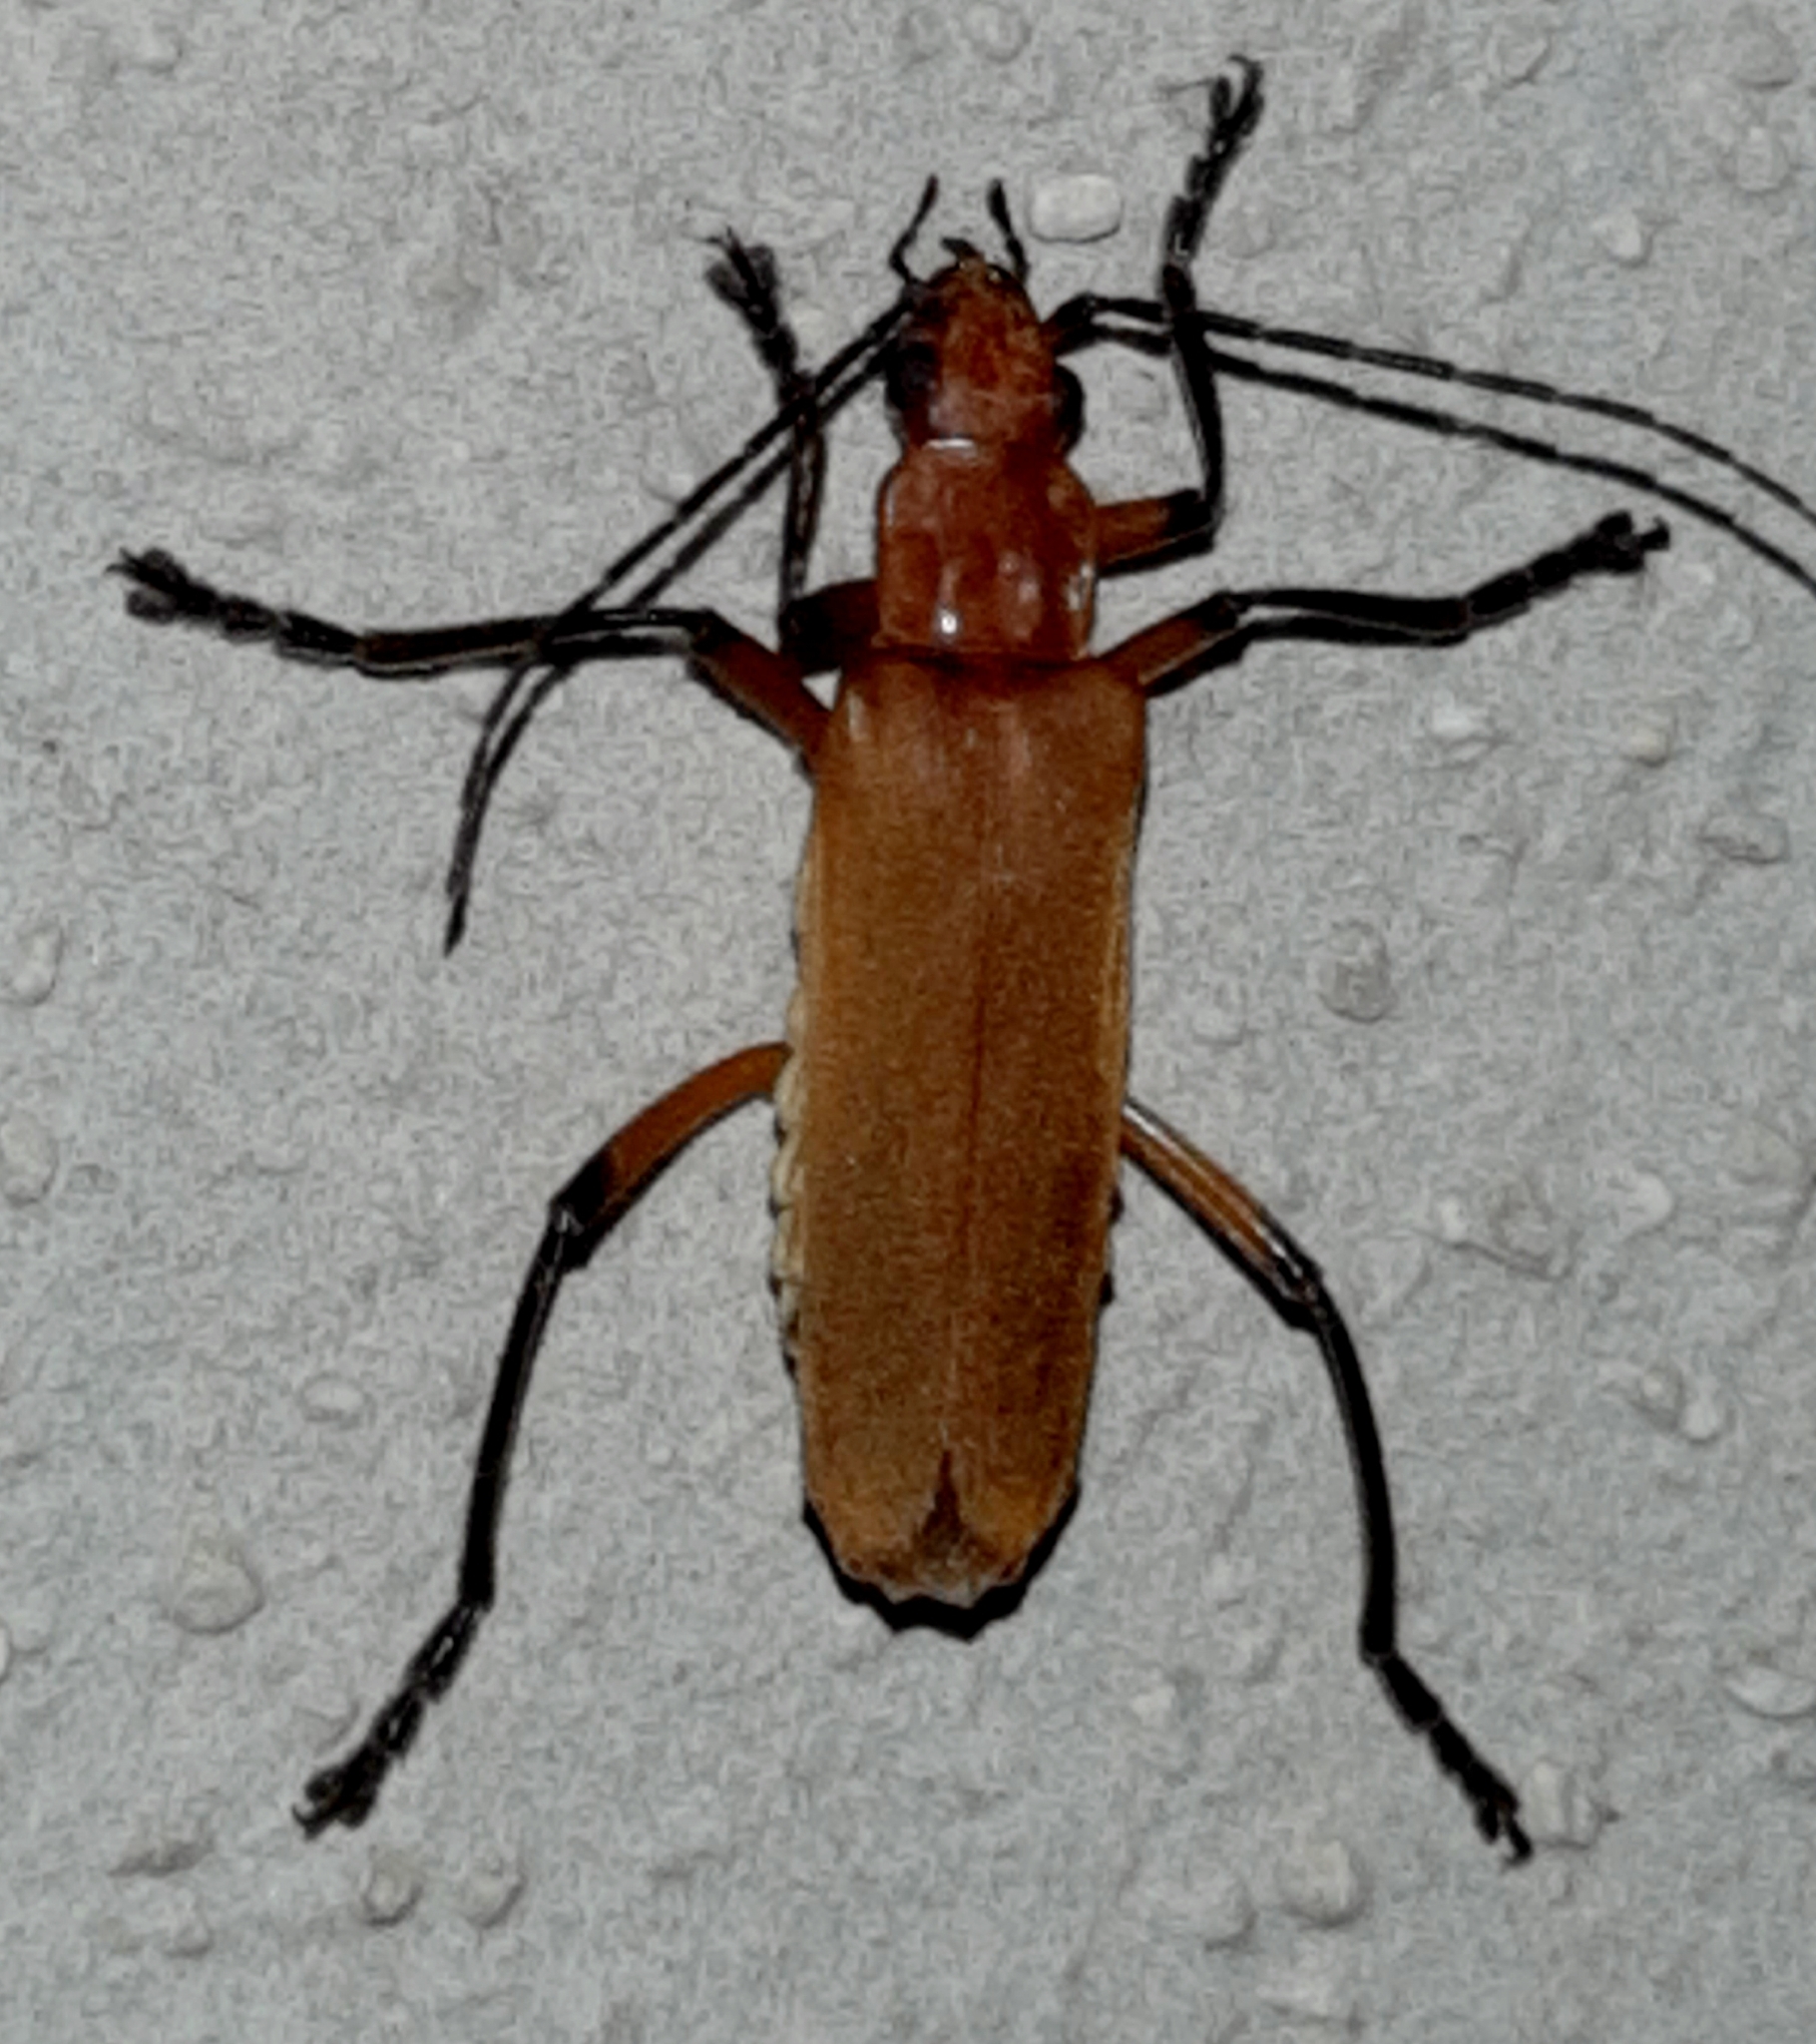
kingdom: Animalia
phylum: Arthropoda
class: Insecta
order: Coleoptera
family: Cantharidae
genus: Chauliognathus
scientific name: Chauliognathus
